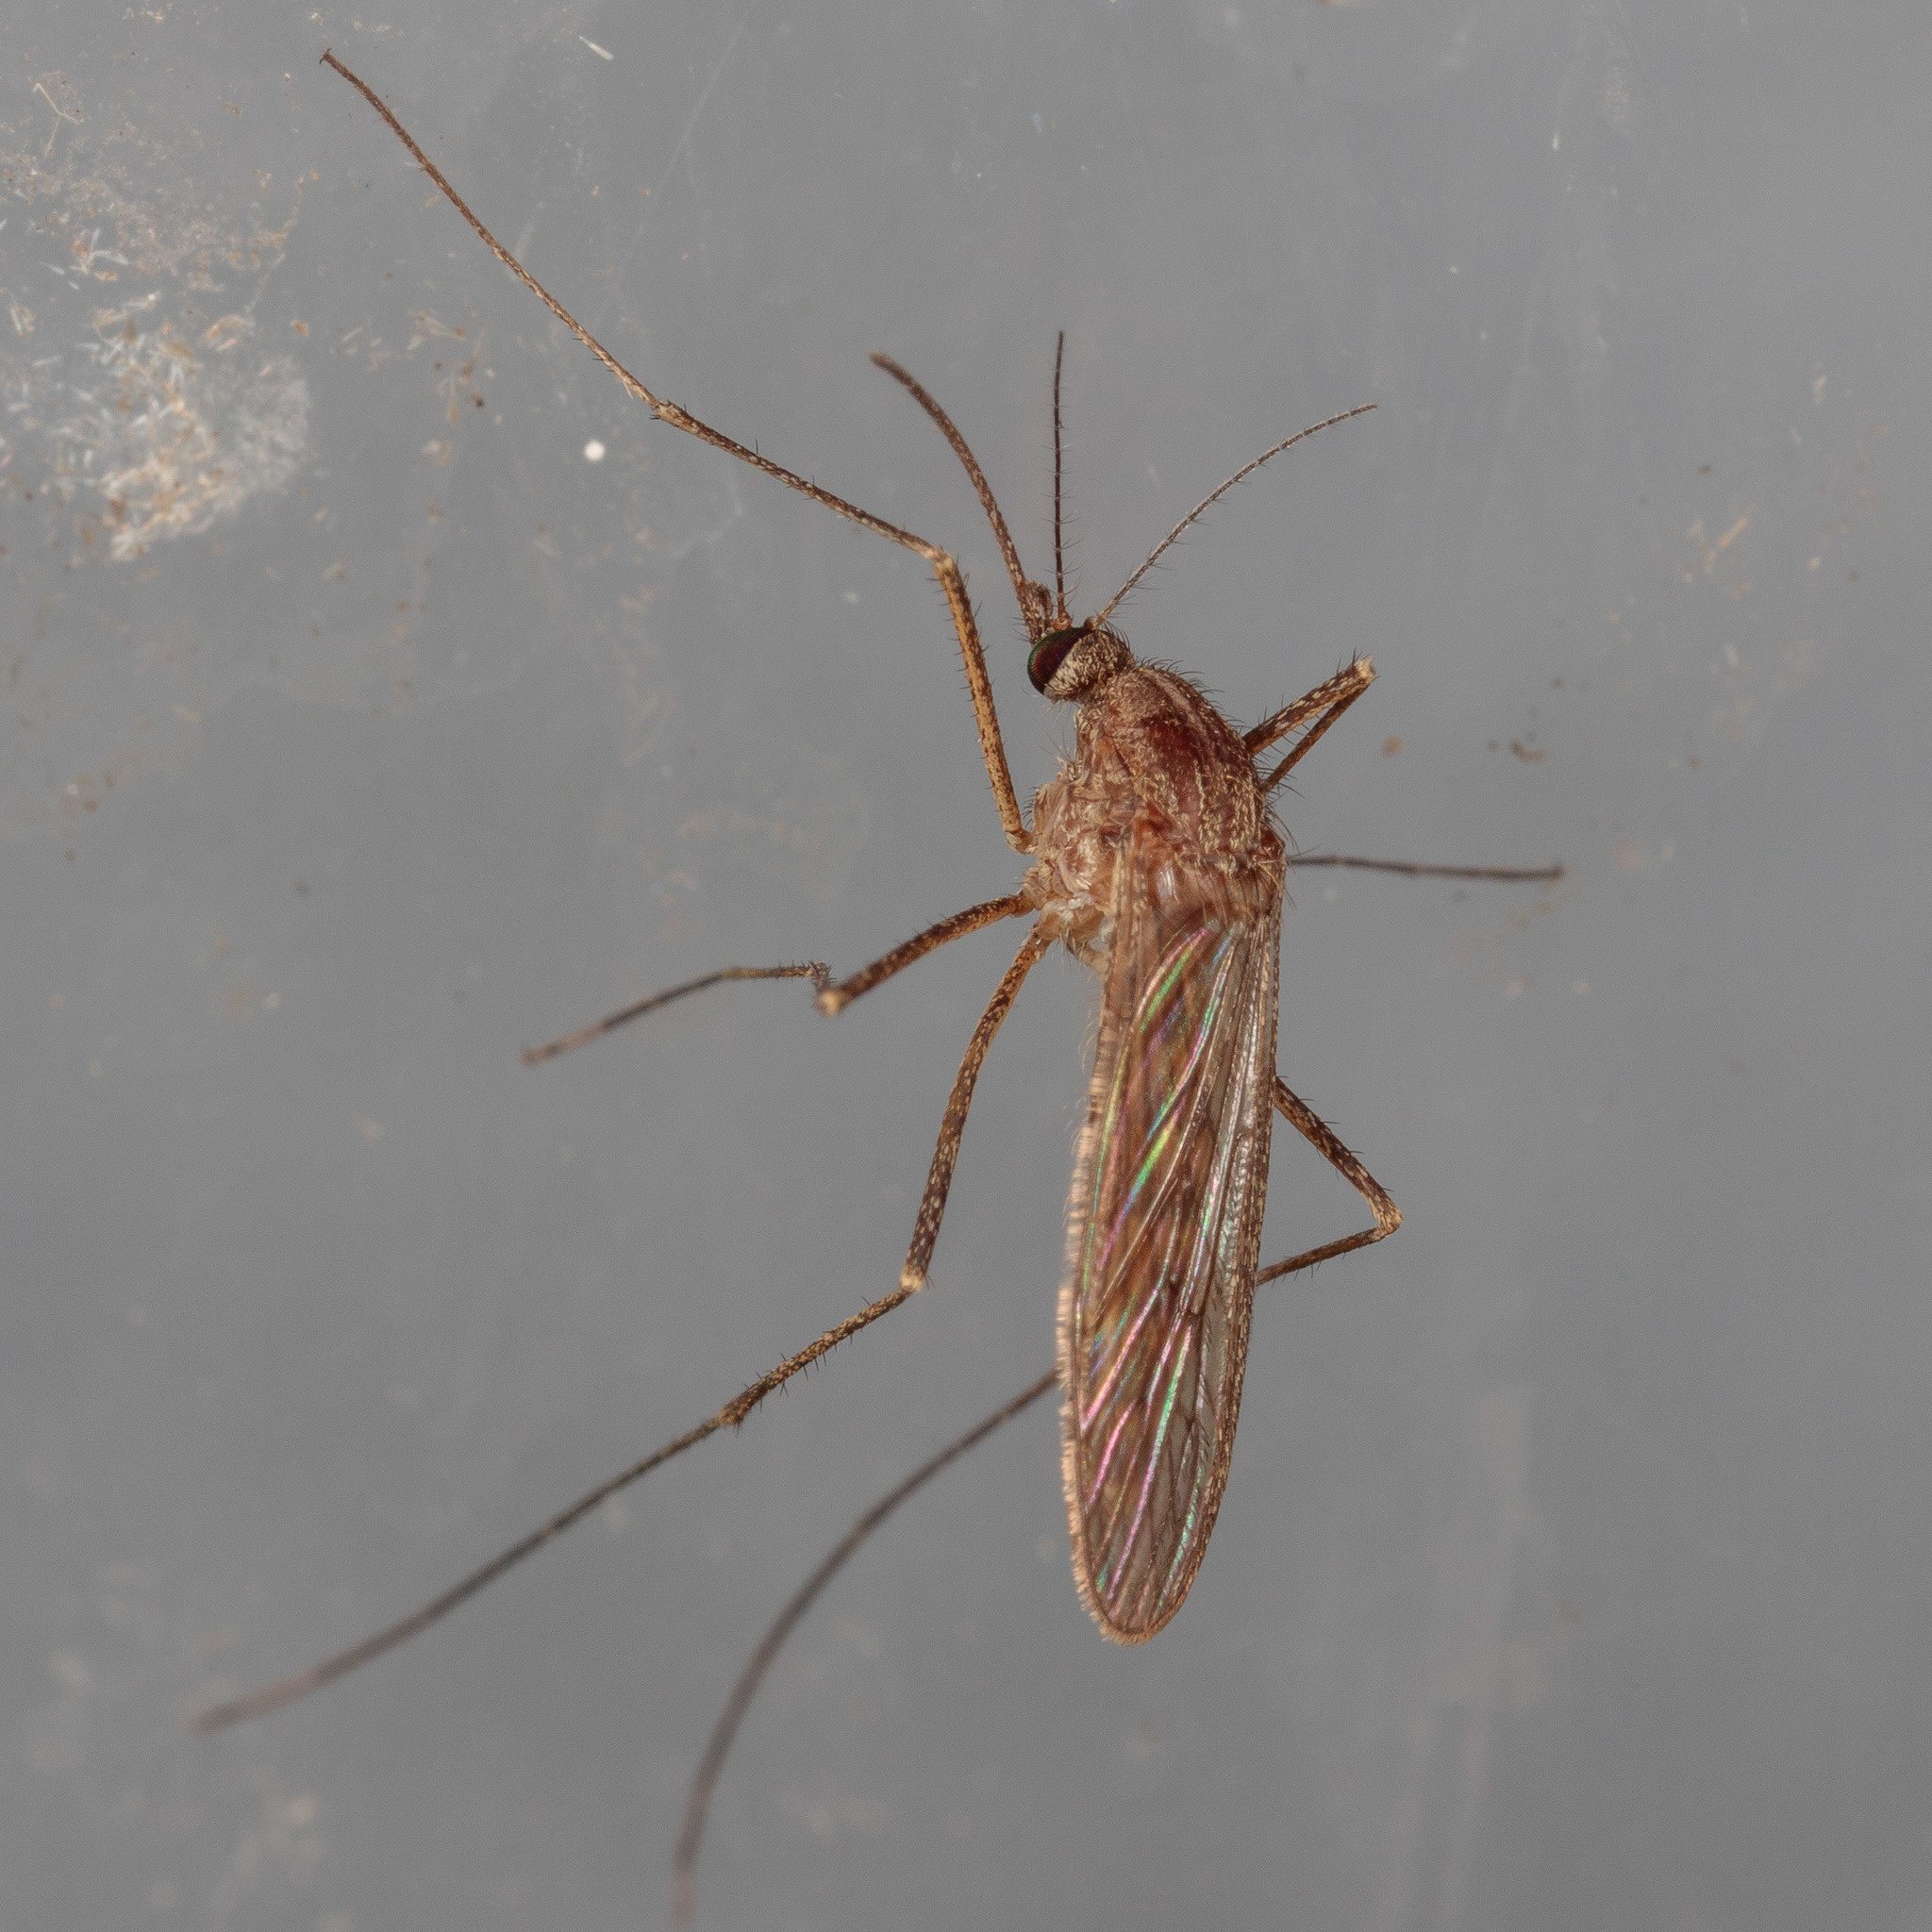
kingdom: Animalia
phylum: Arthropoda
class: Insecta
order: Diptera
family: Culicidae
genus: Culiseta
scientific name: Culiseta inornata
